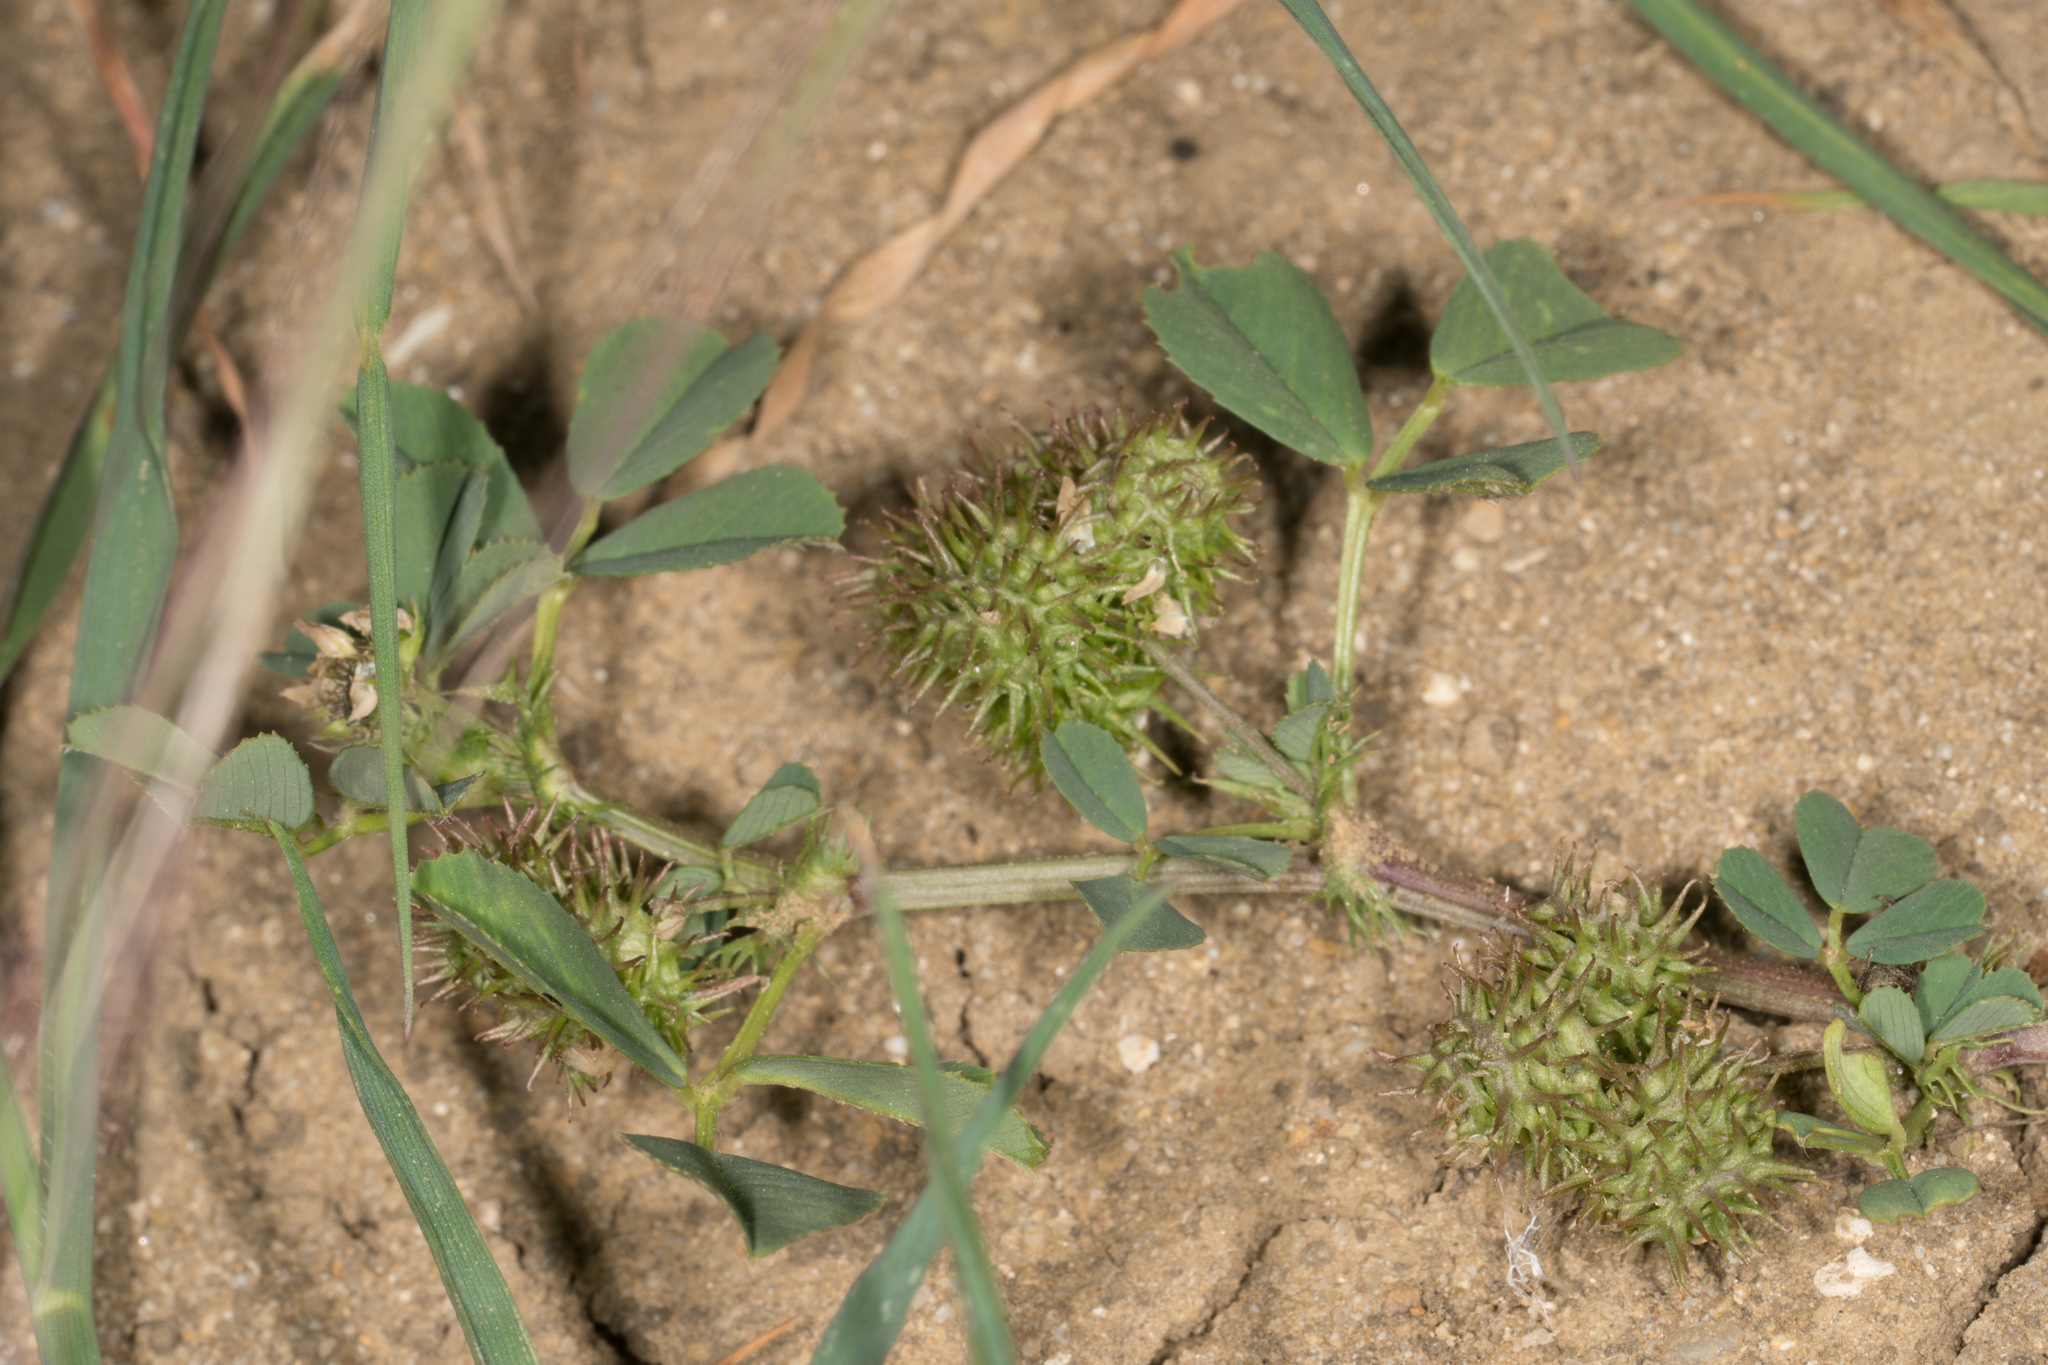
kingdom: Plantae
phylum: Tracheophyta
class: Magnoliopsida
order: Fabales
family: Fabaceae
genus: Medicago
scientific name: Medicago polymorpha
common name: Burclover
